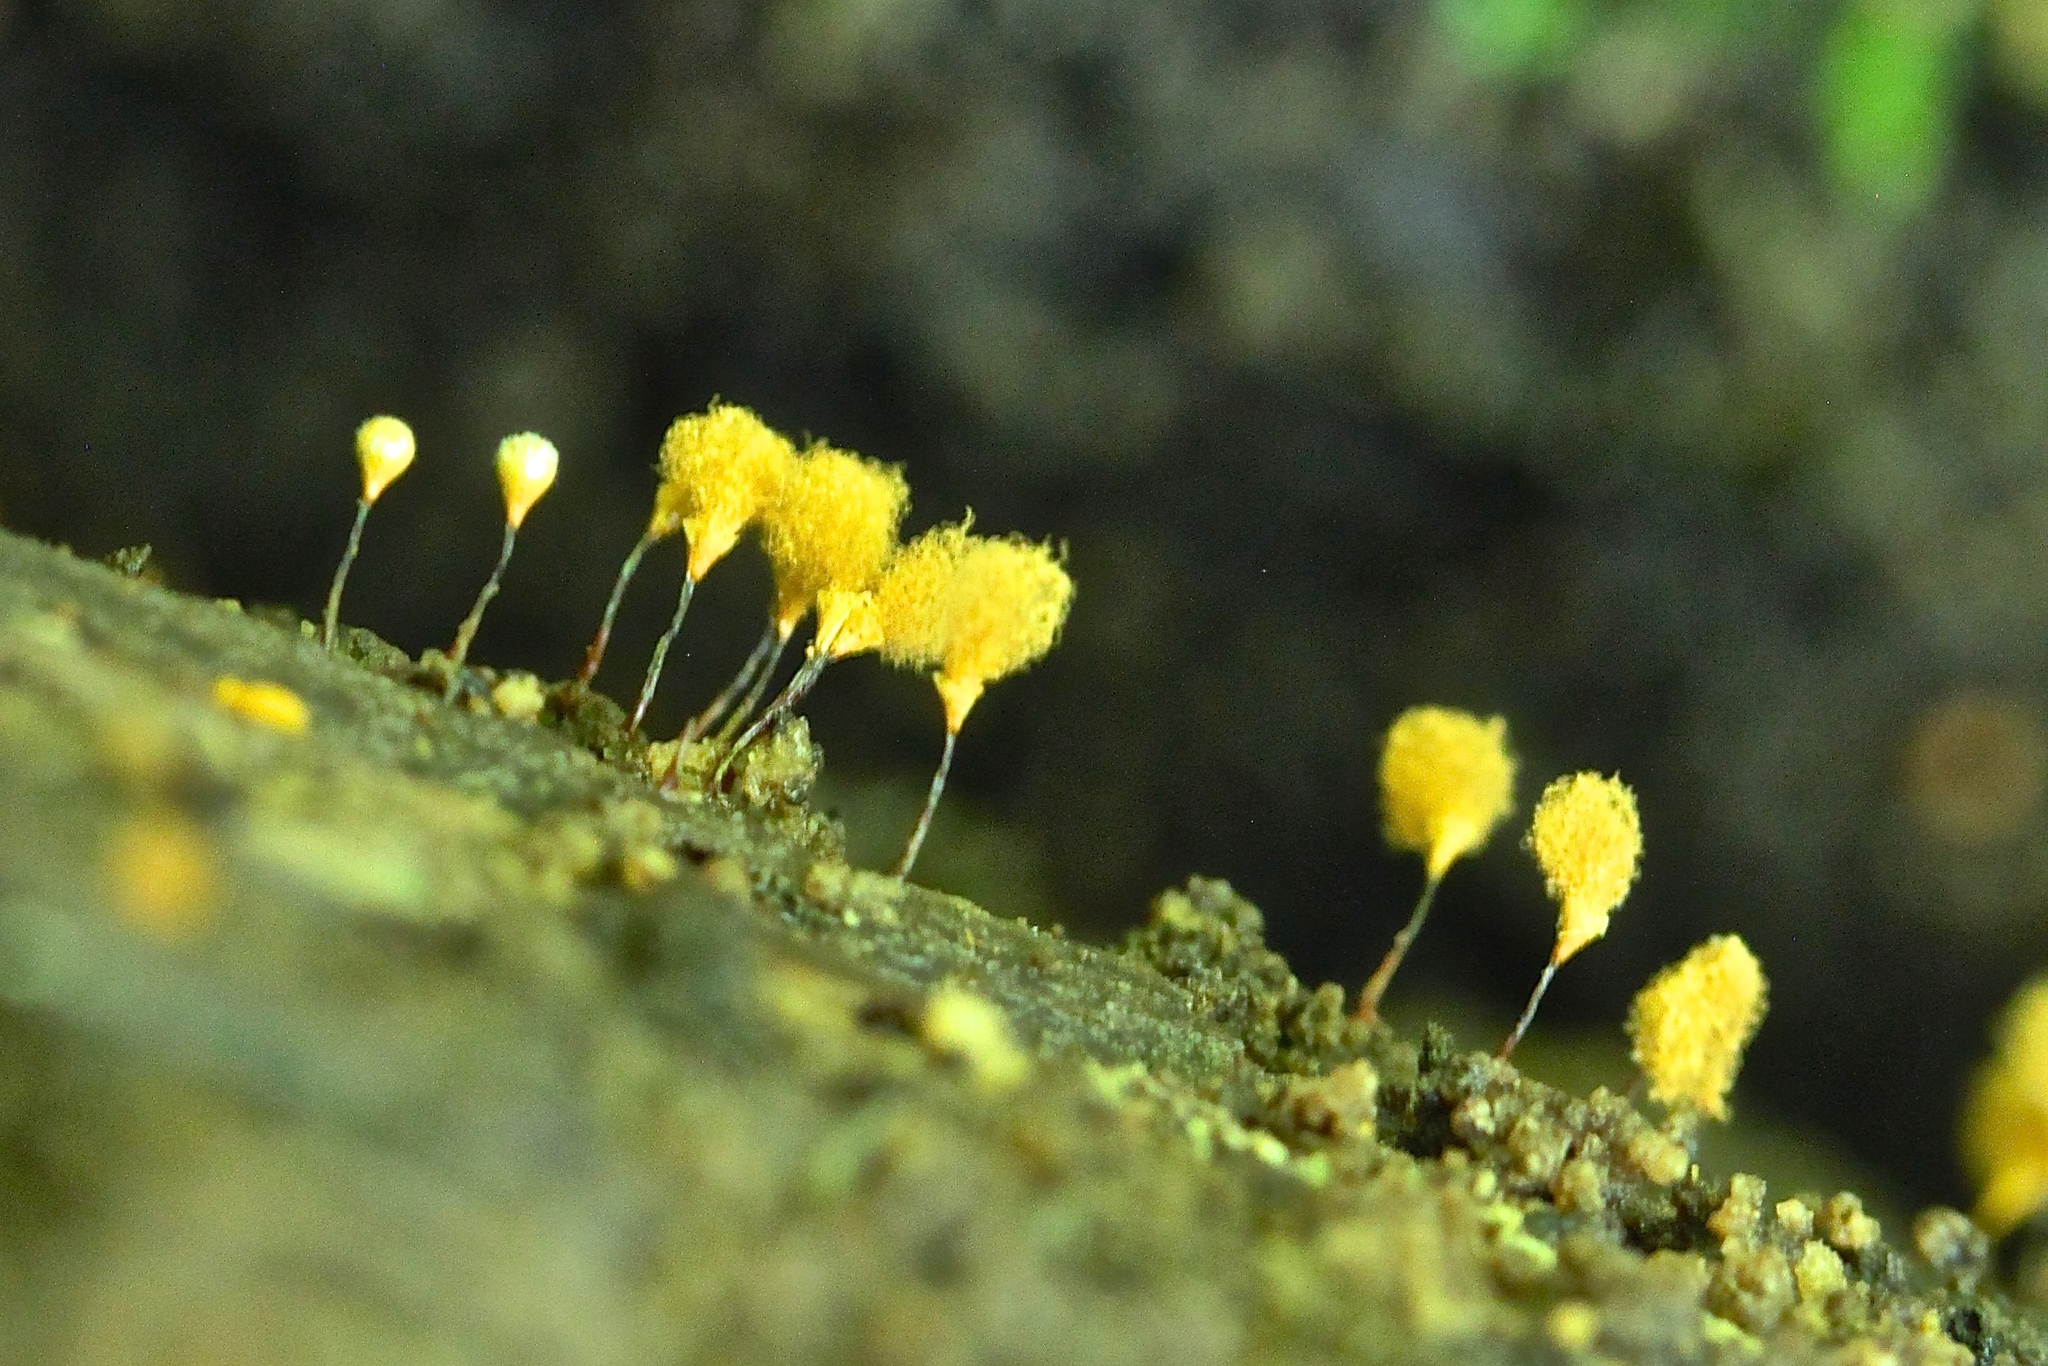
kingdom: Protozoa
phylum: Mycetozoa
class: Myxomycetes
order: Trichiales
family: Arcyriaceae
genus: Hemitrichia
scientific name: Hemitrichia calyculata
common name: Push pin slime mold
